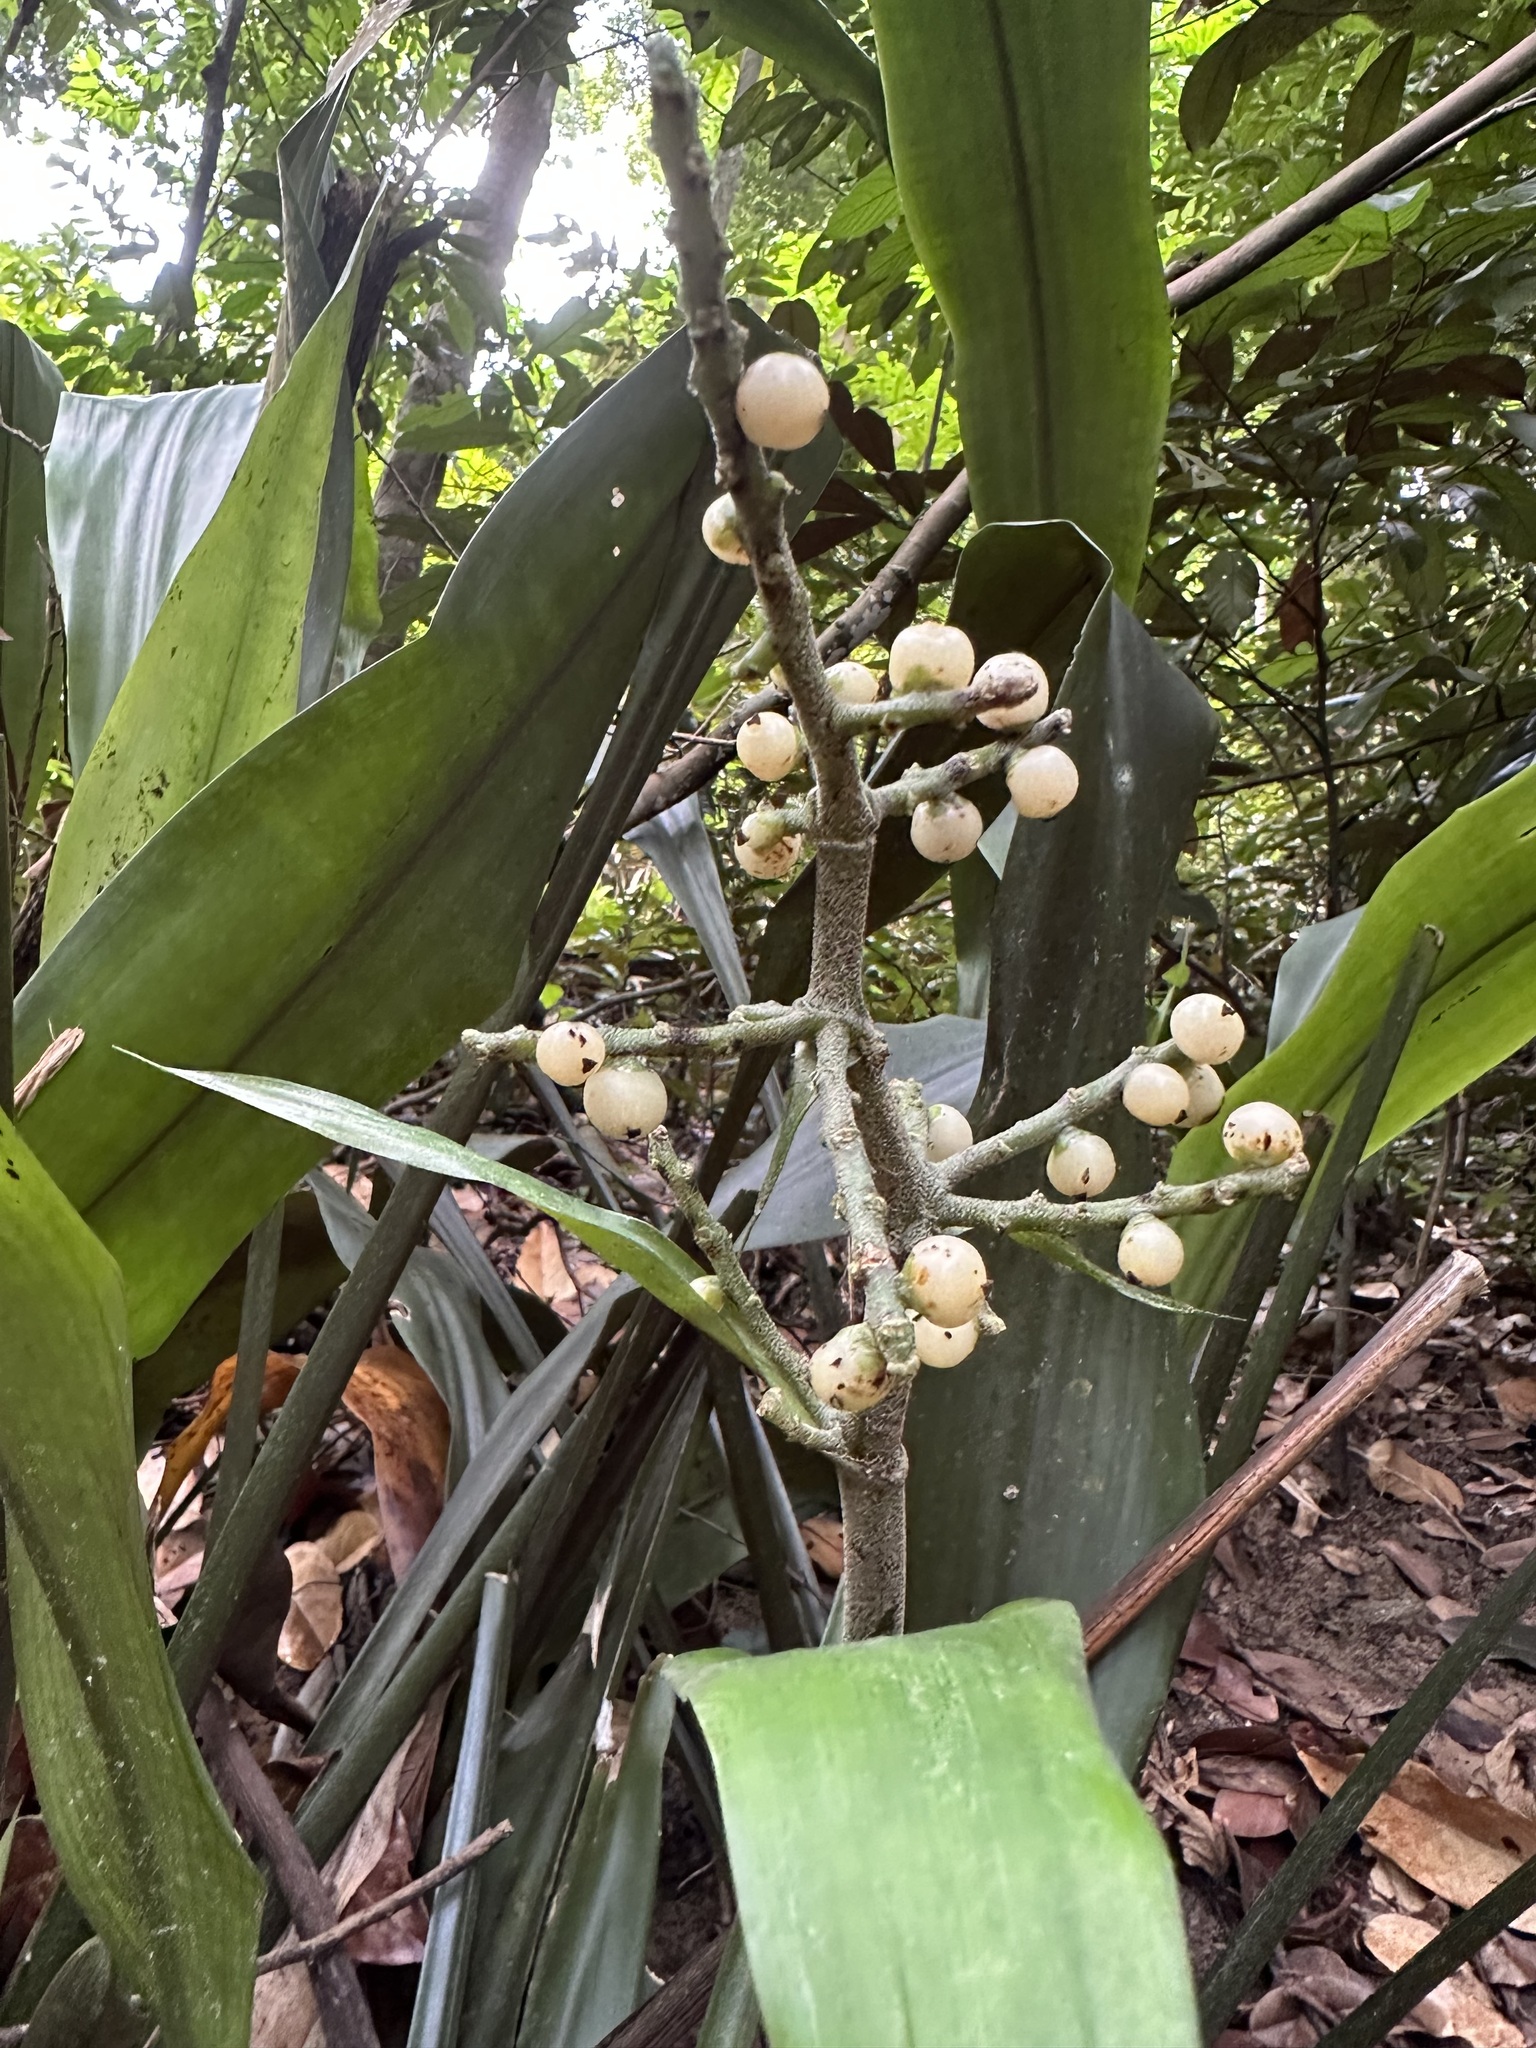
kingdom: Plantae
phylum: Tracheophyta
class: Liliopsida
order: Commelinales
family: Hanguanaceae
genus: Hanguana
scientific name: Hanguana triangulata
